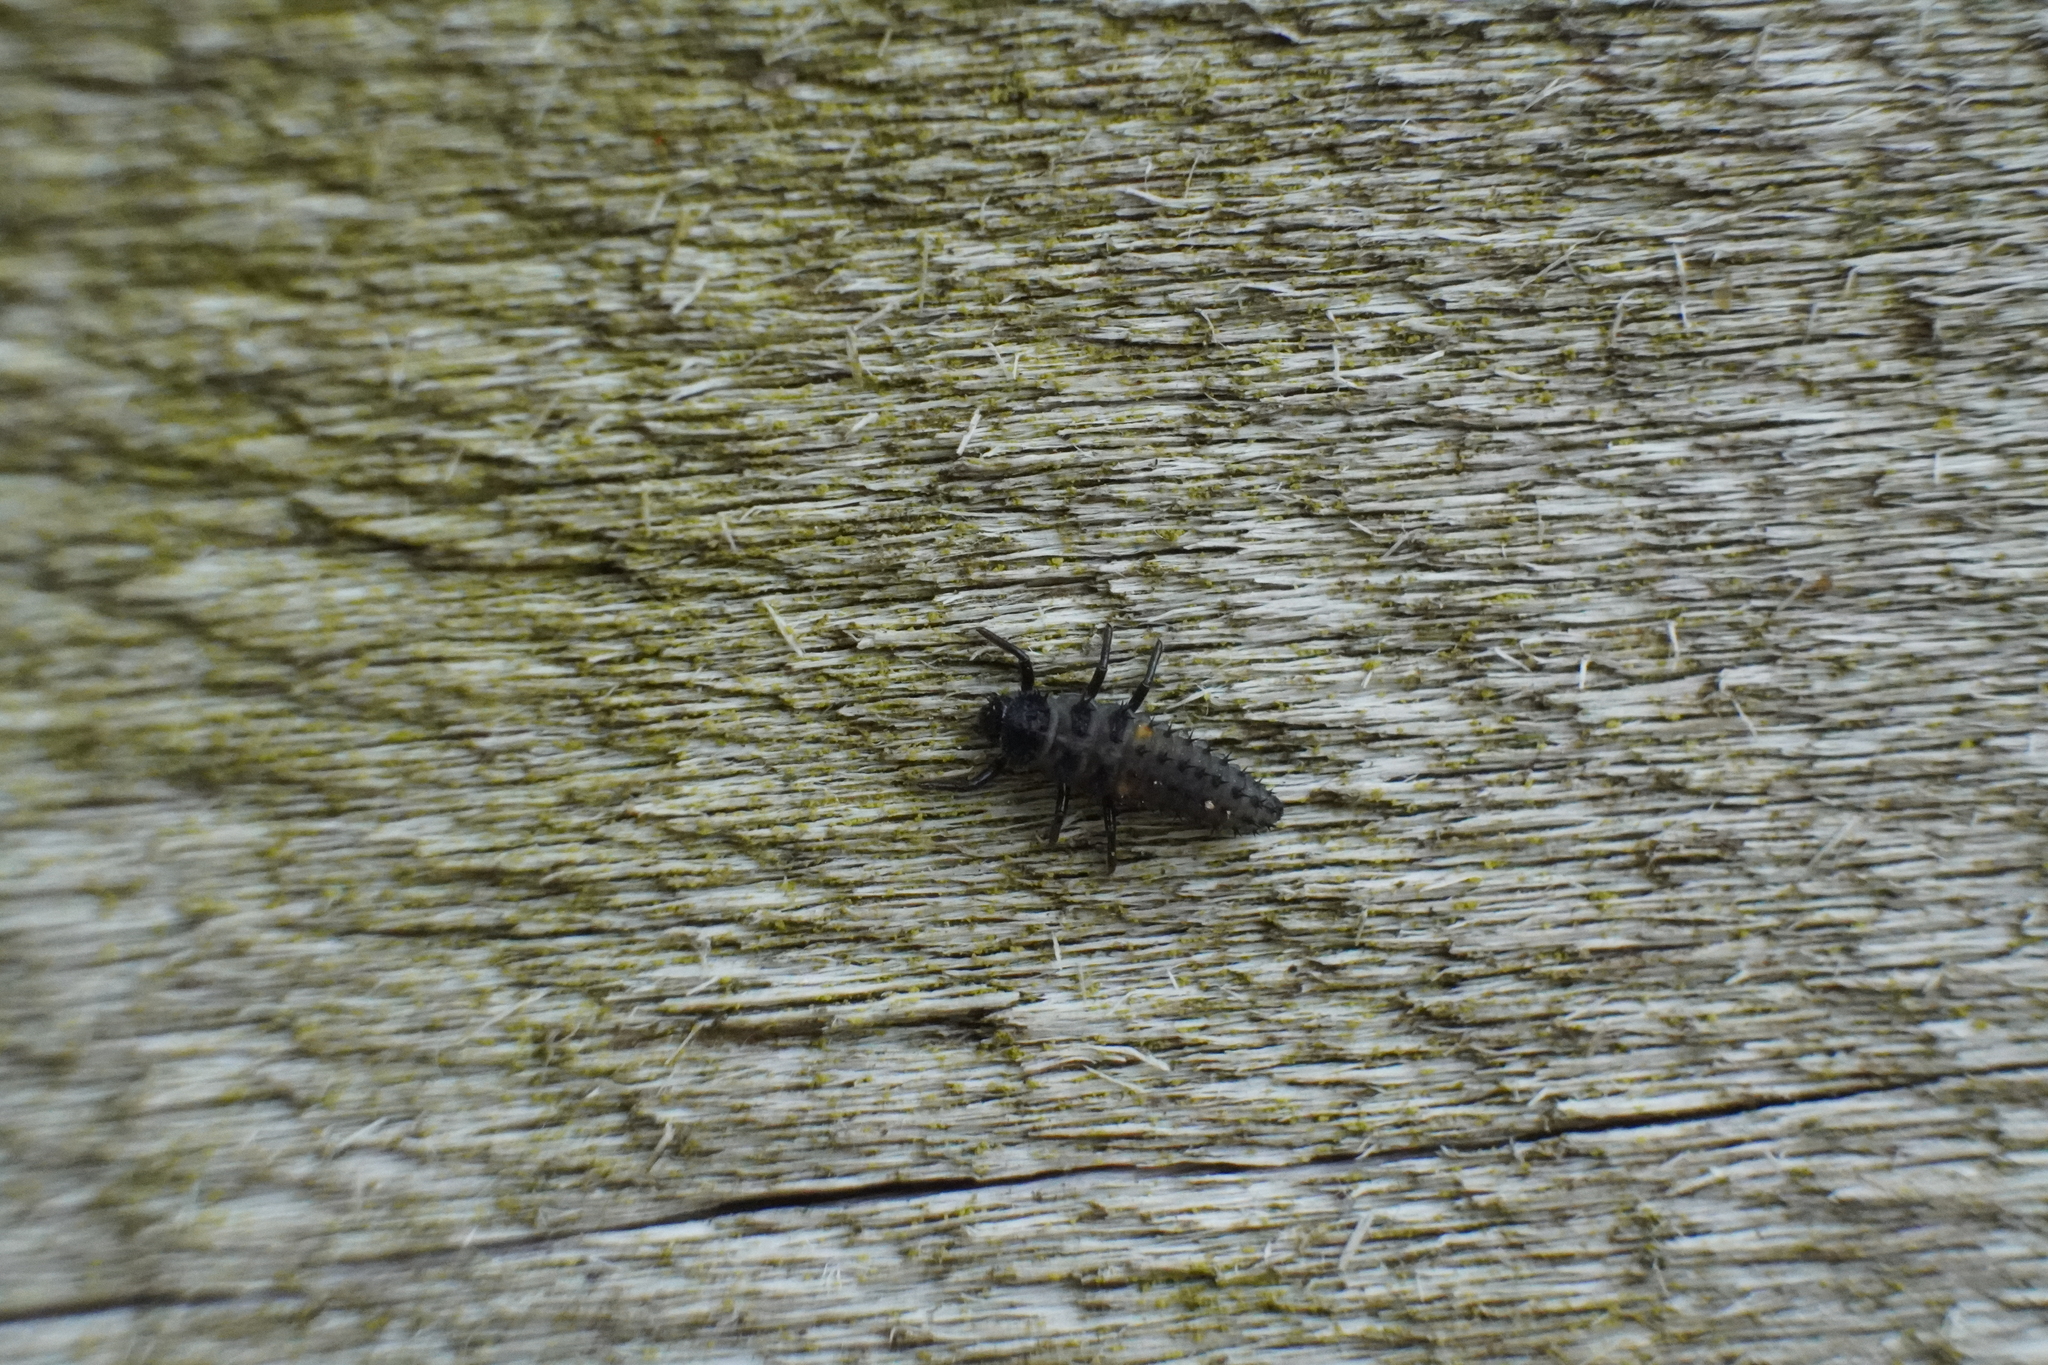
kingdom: Animalia
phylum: Arthropoda
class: Insecta
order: Coleoptera
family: Coccinellidae
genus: Harmonia
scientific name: Harmonia axyridis
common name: Harlequin ladybird
